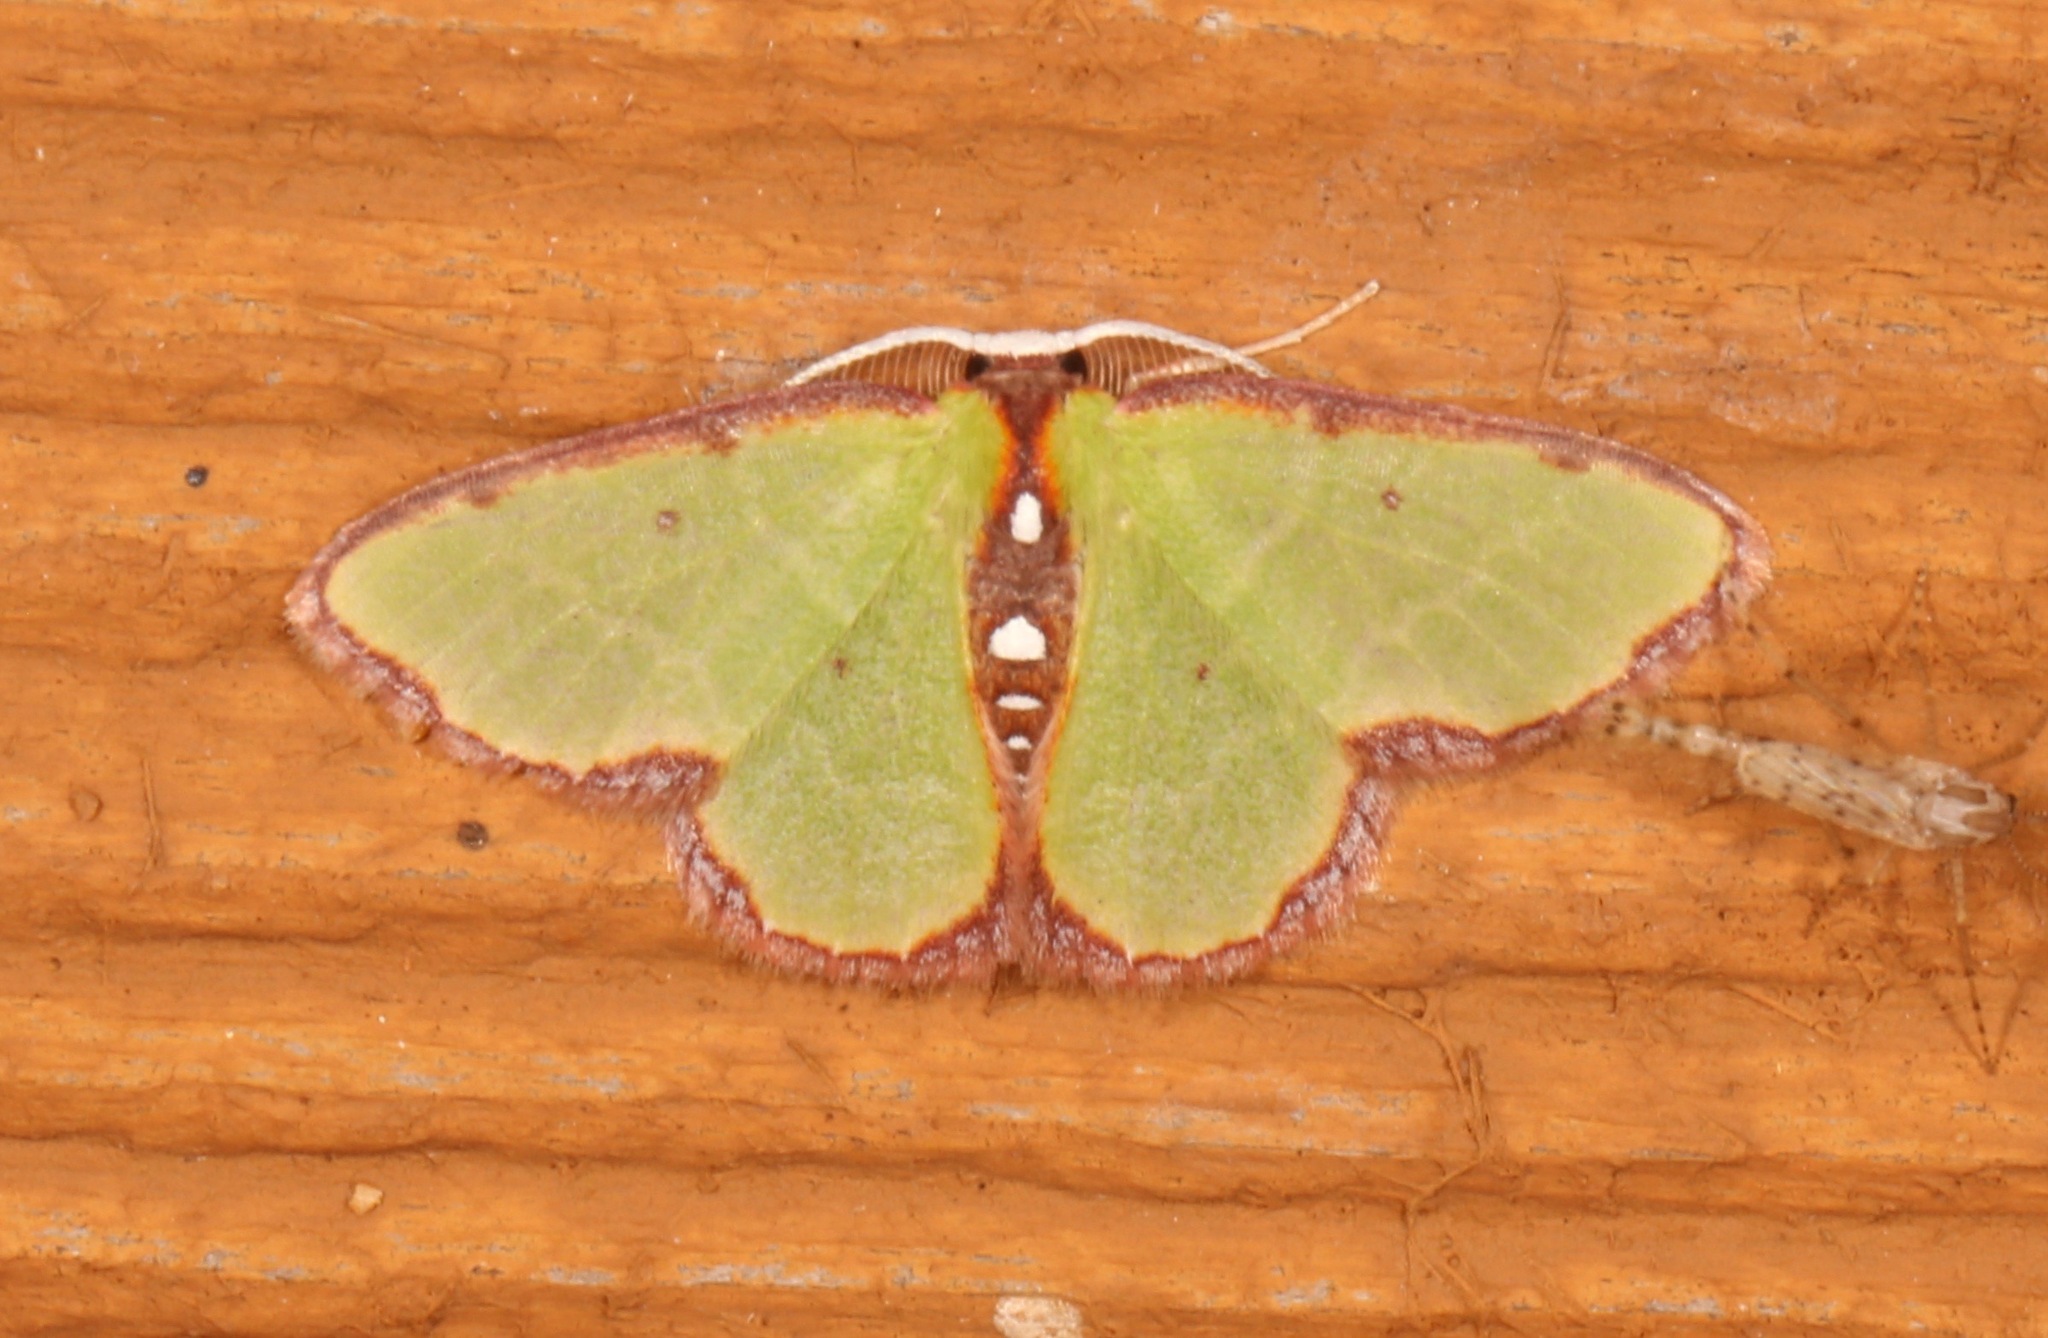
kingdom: Animalia
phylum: Arthropoda
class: Insecta
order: Lepidoptera
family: Geometridae
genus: Synchlora
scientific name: Synchlora cupedinaria
